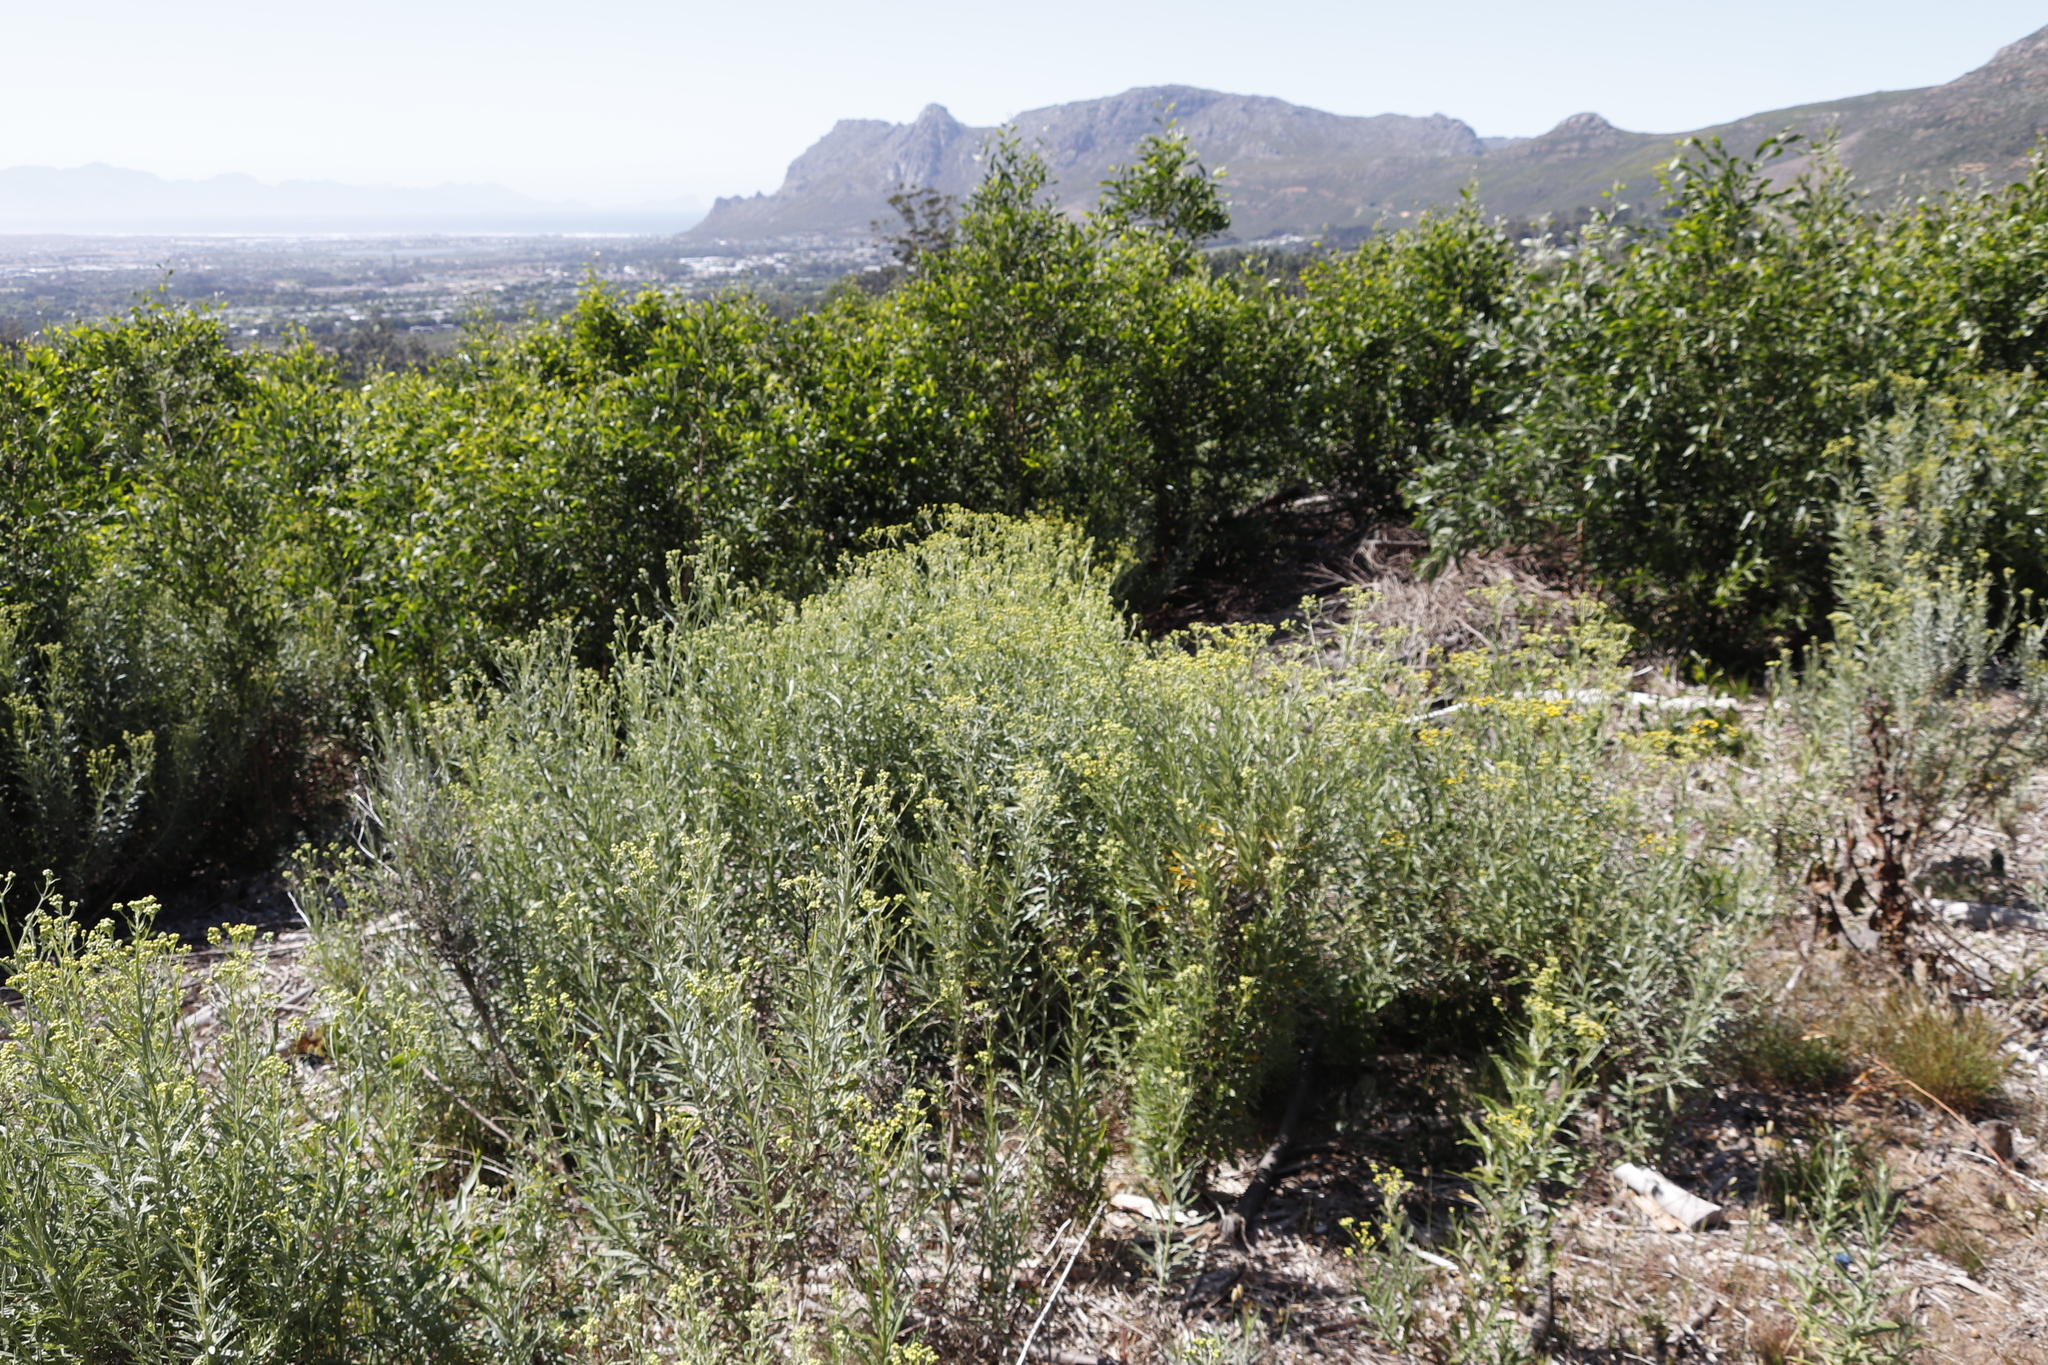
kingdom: Plantae
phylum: Tracheophyta
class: Magnoliopsida
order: Asterales
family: Asteraceae
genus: Senecio
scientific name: Senecio pterophorus
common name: Shoddy ragwort
